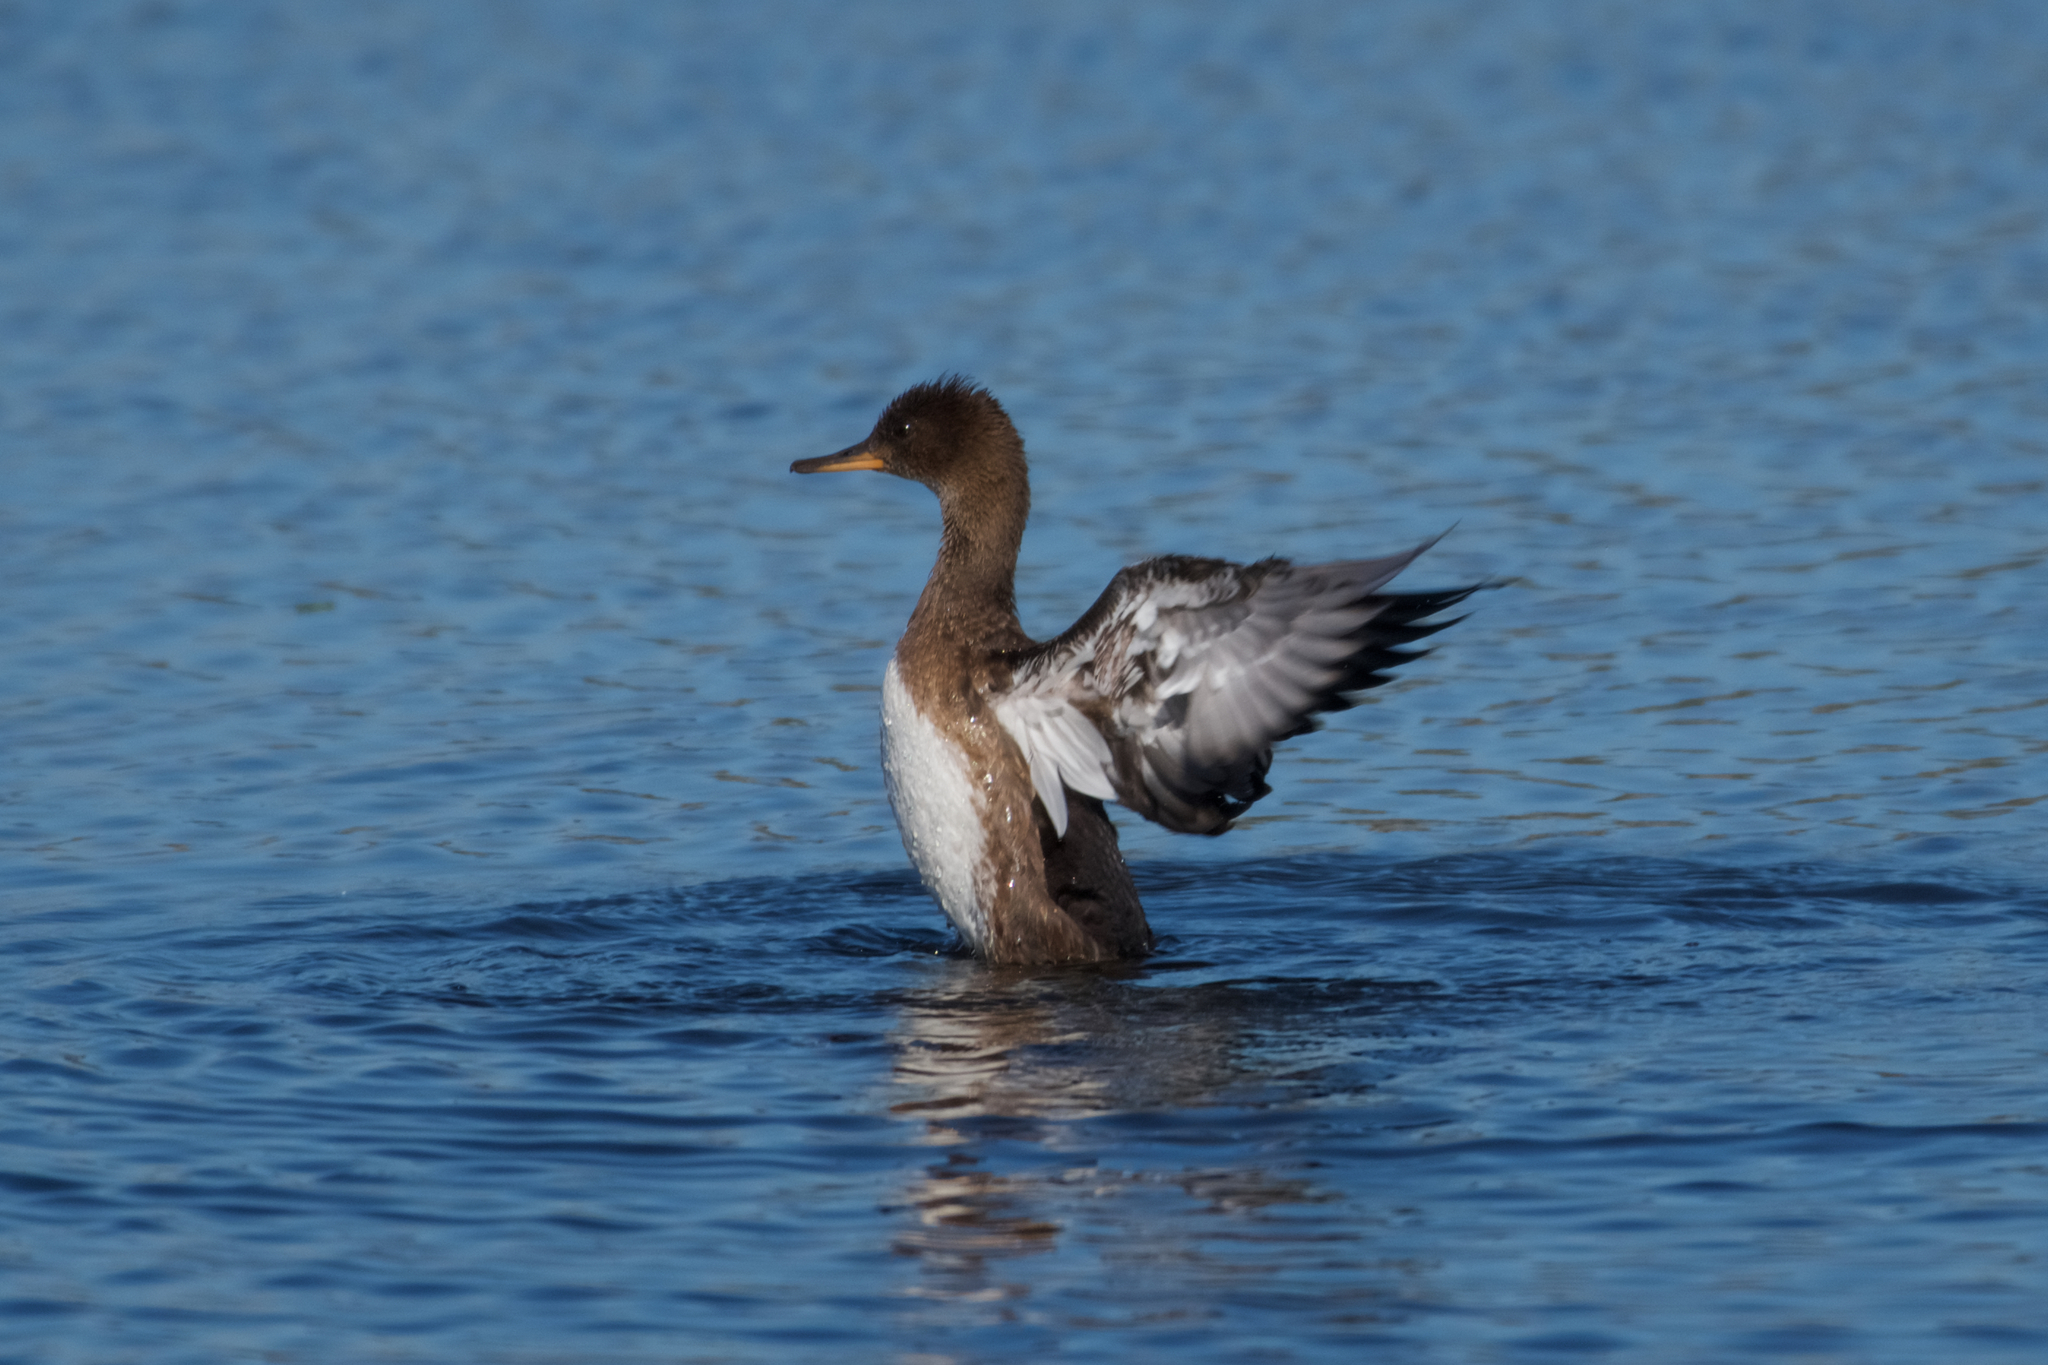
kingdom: Animalia
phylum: Chordata
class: Aves
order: Anseriformes
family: Anatidae
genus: Lophodytes
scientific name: Lophodytes cucullatus
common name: Hooded merganser
